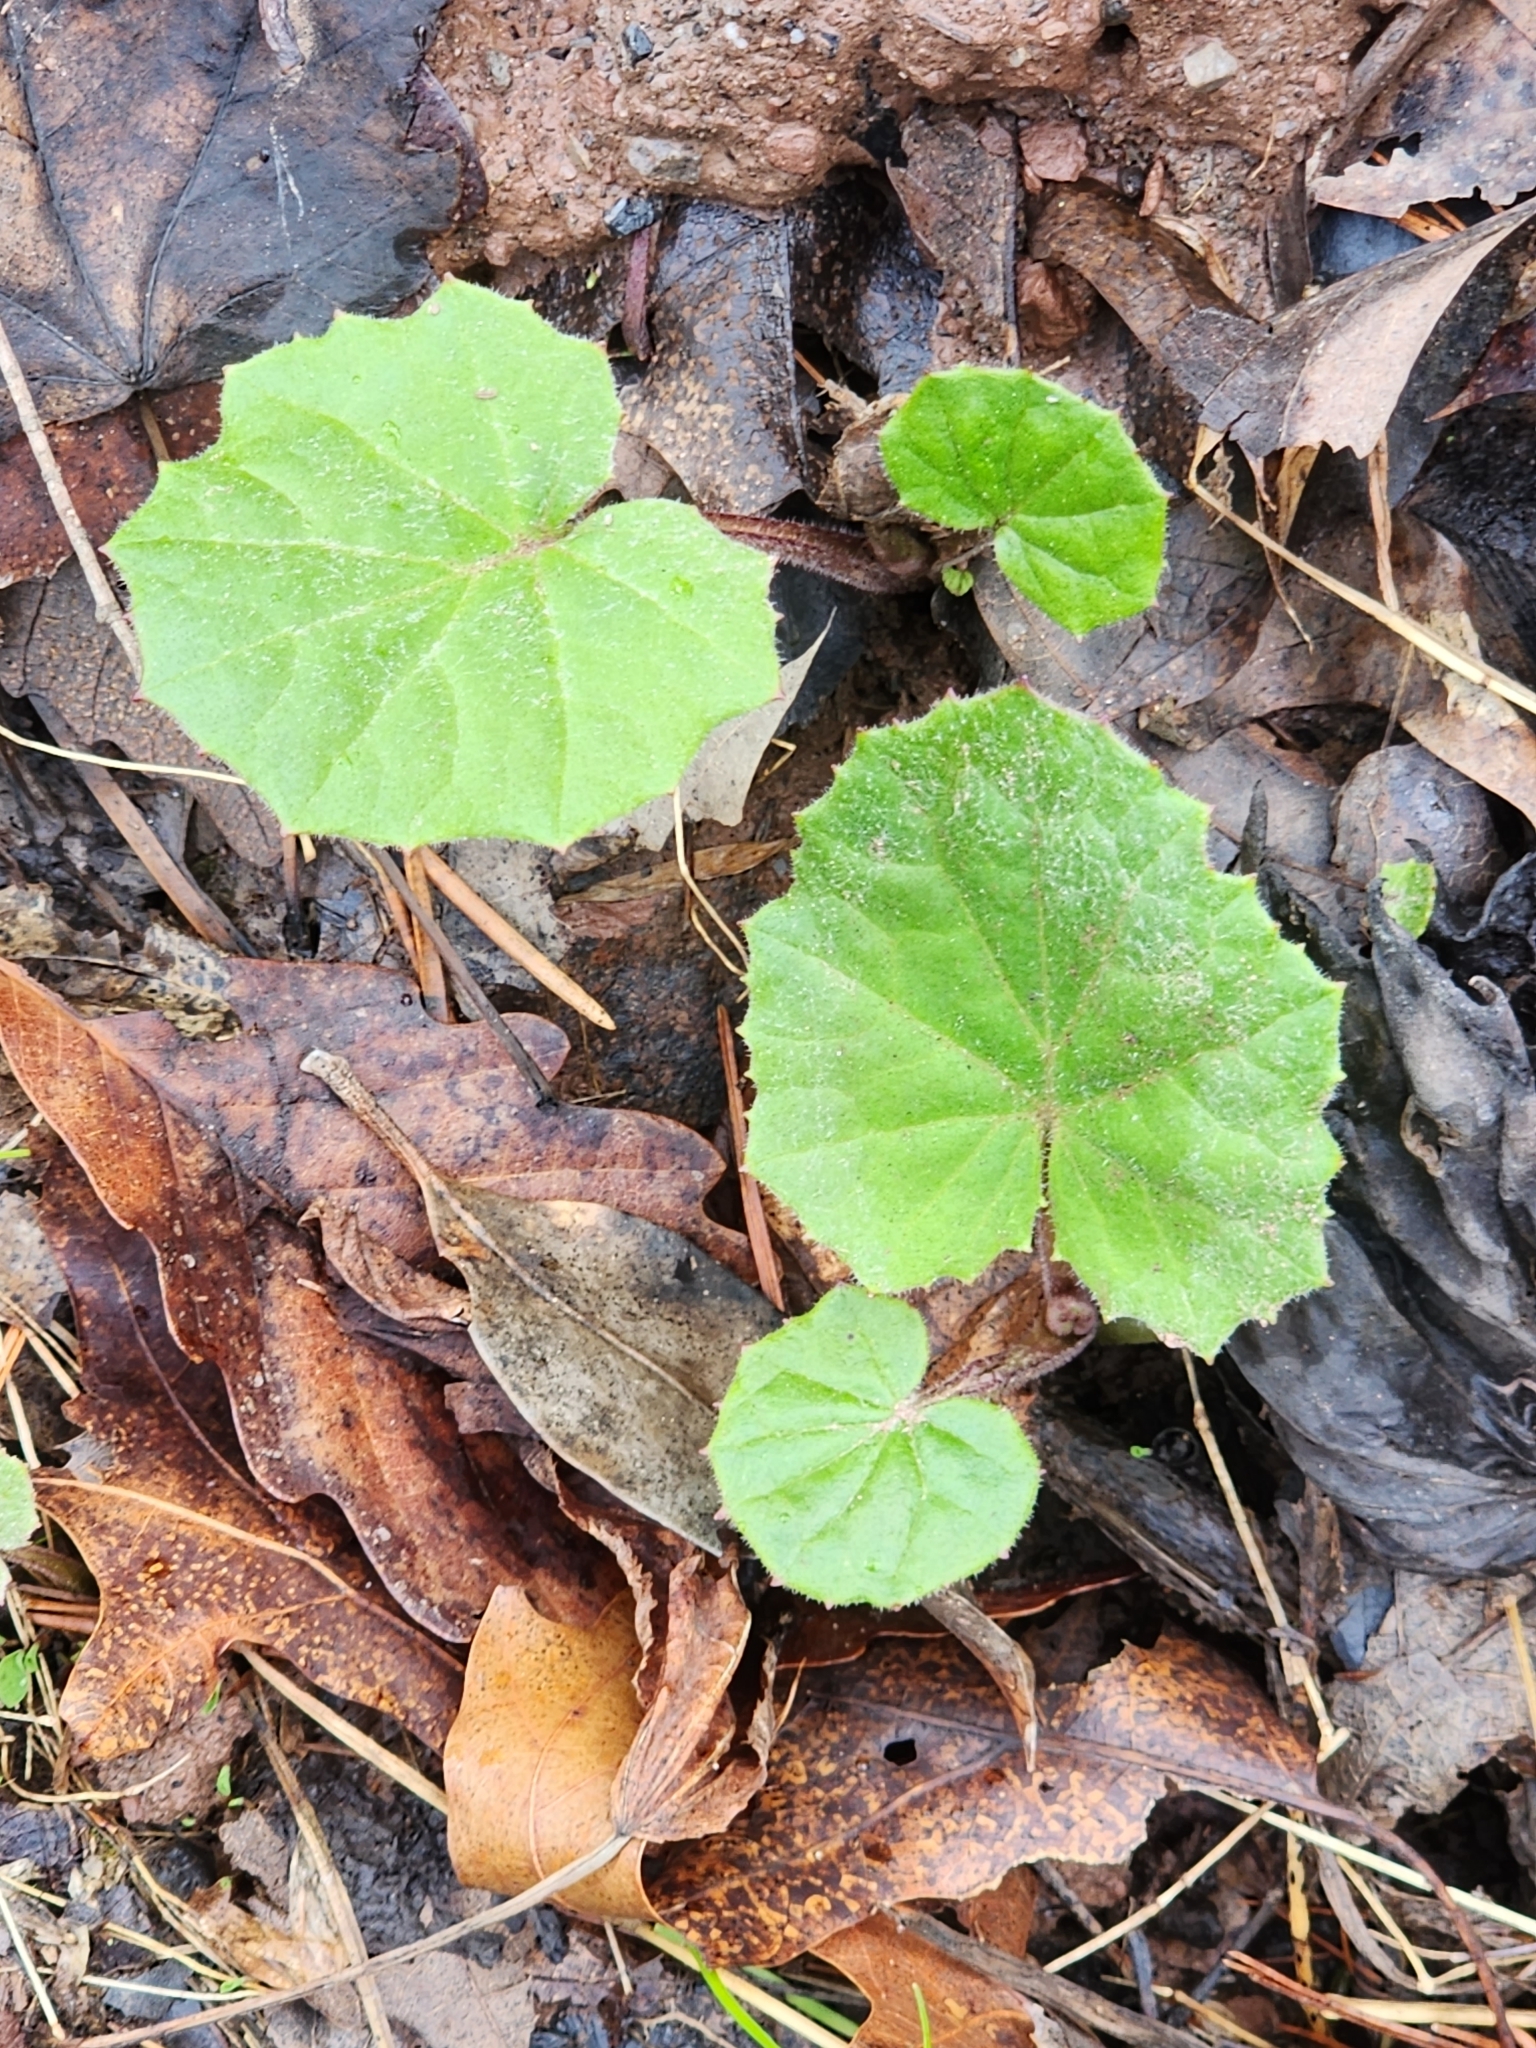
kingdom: Plantae
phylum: Tracheophyta
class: Magnoliopsida
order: Asterales
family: Asteraceae
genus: Tussilago
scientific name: Tussilago farfara
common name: Coltsfoot
